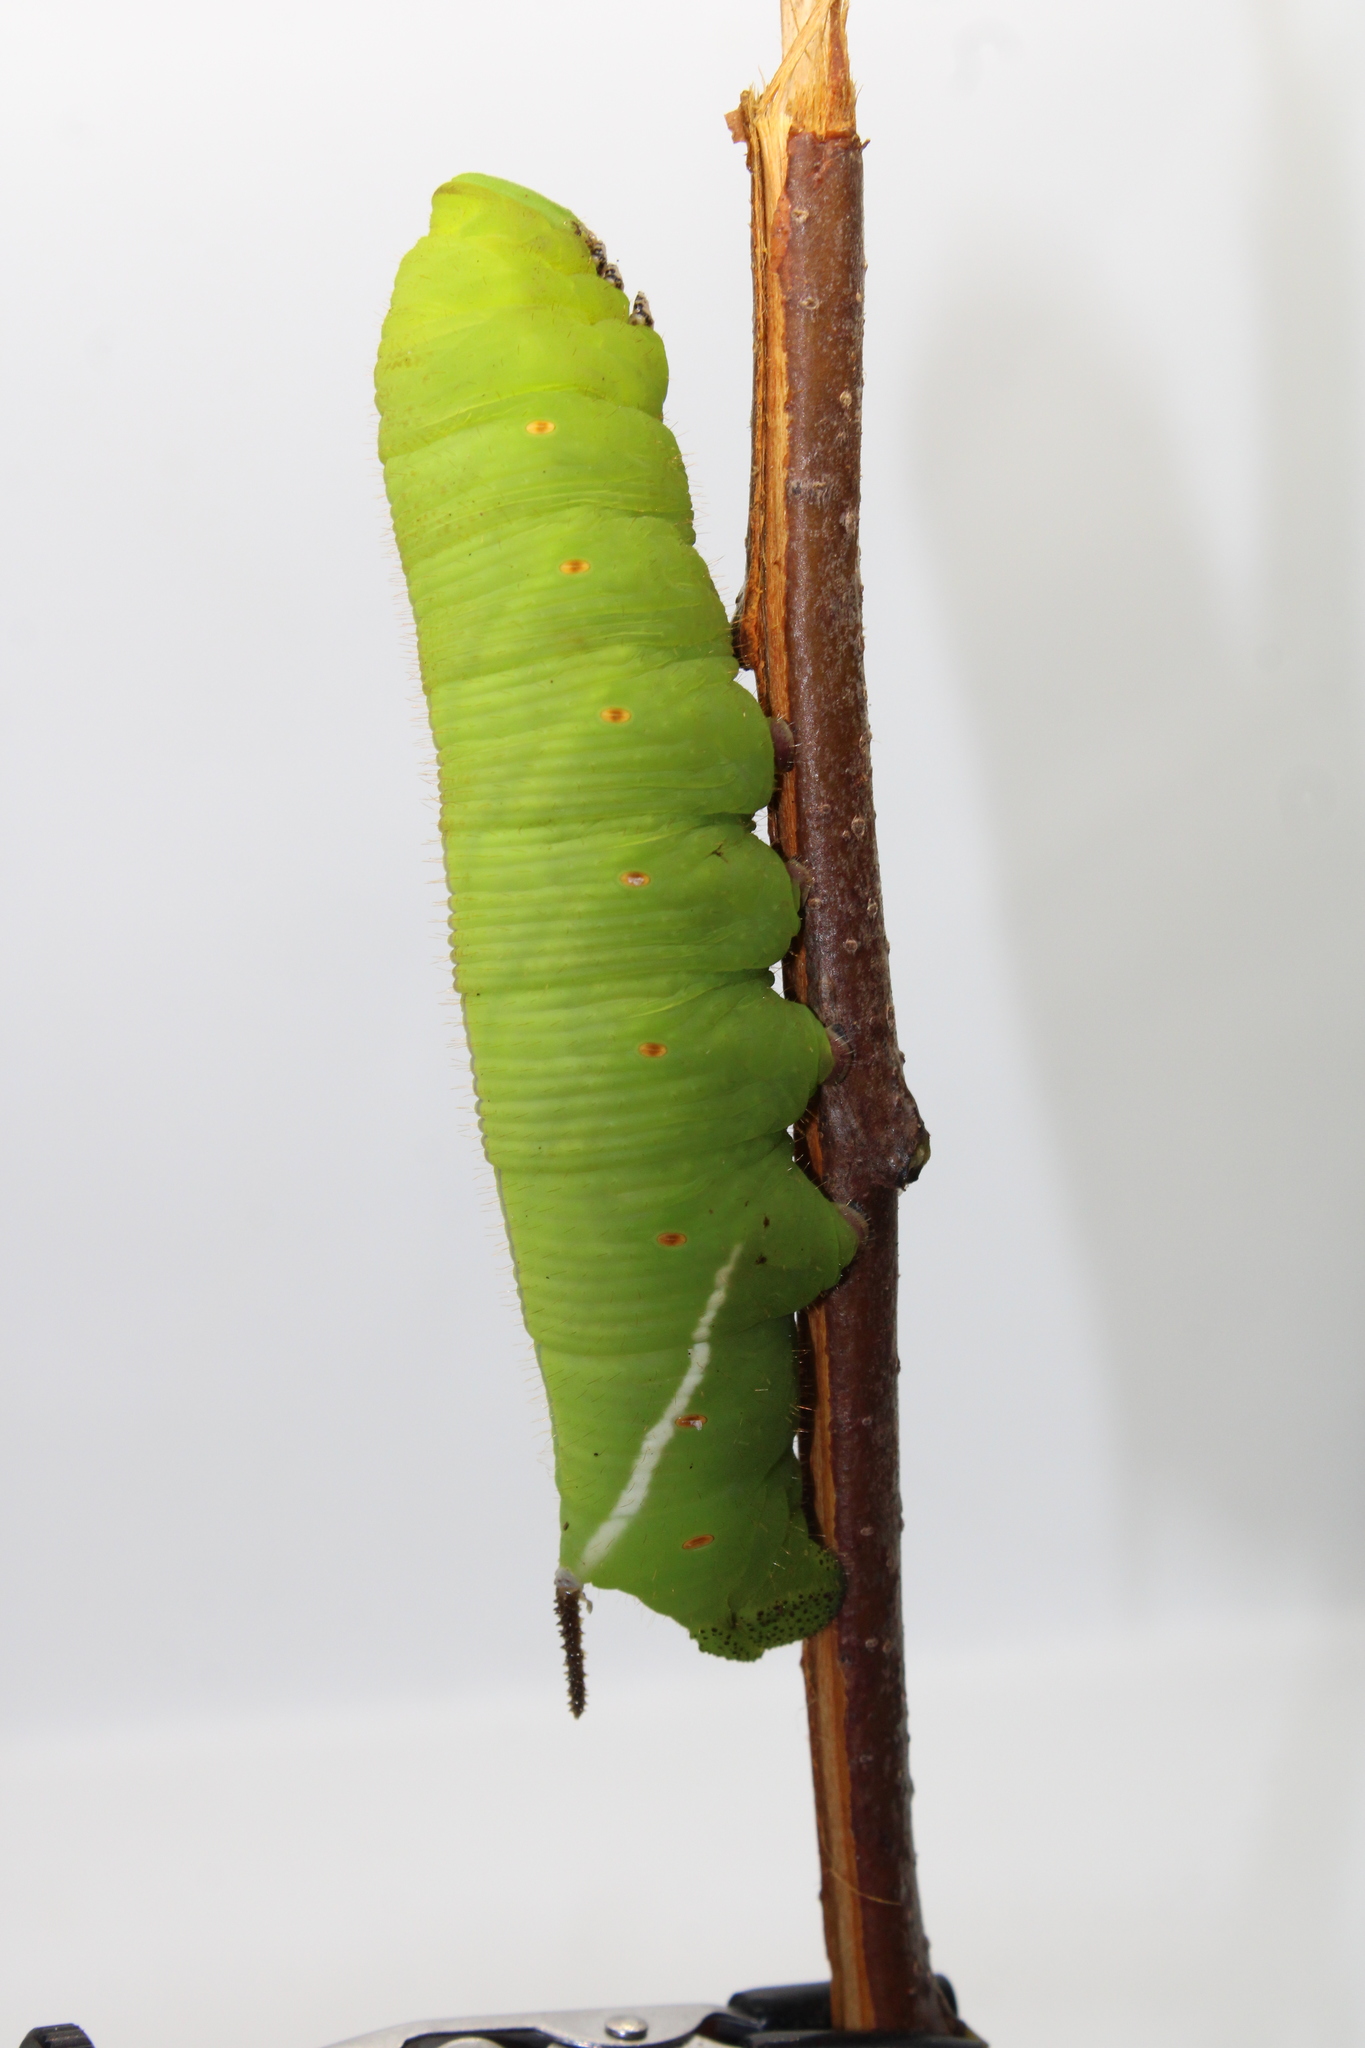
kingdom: Animalia
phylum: Arthropoda
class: Insecta
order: Lepidoptera
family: Sphingidae
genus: Cocytius
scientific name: Cocytius antaeus
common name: Giant sphinx
